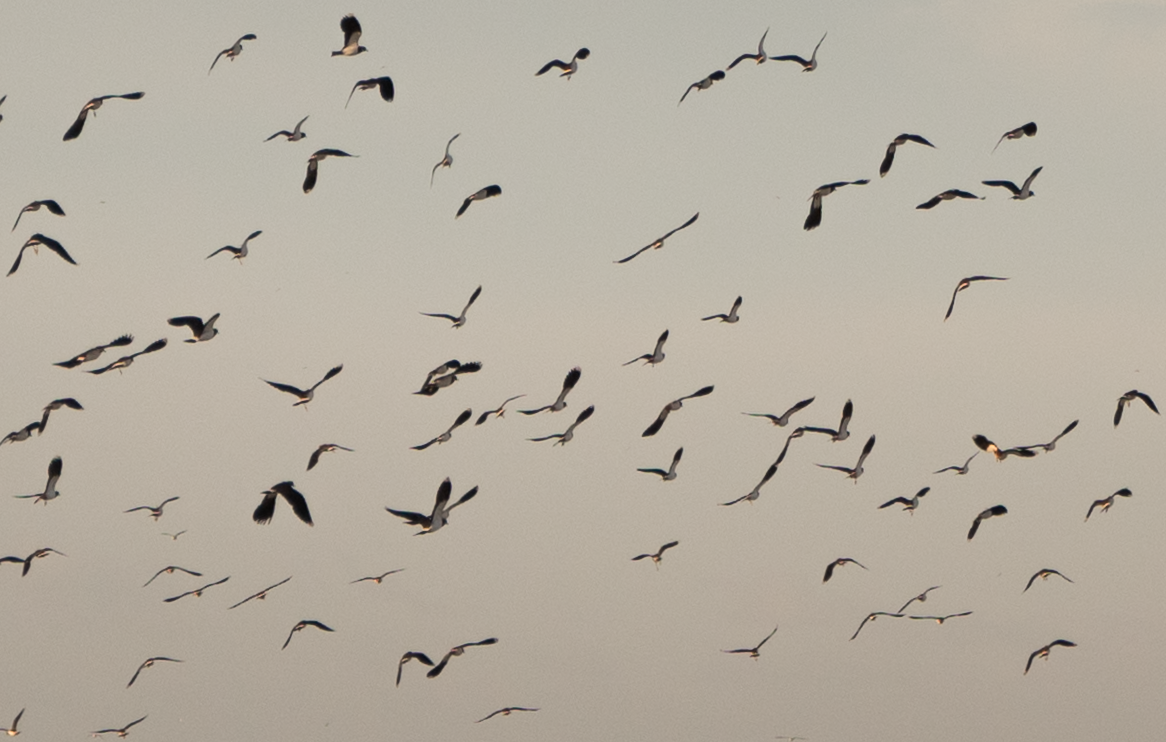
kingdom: Animalia
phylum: Chordata
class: Aves
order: Charadriiformes
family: Charadriidae
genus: Vanellus
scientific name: Vanellus vanellus
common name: Northern lapwing
